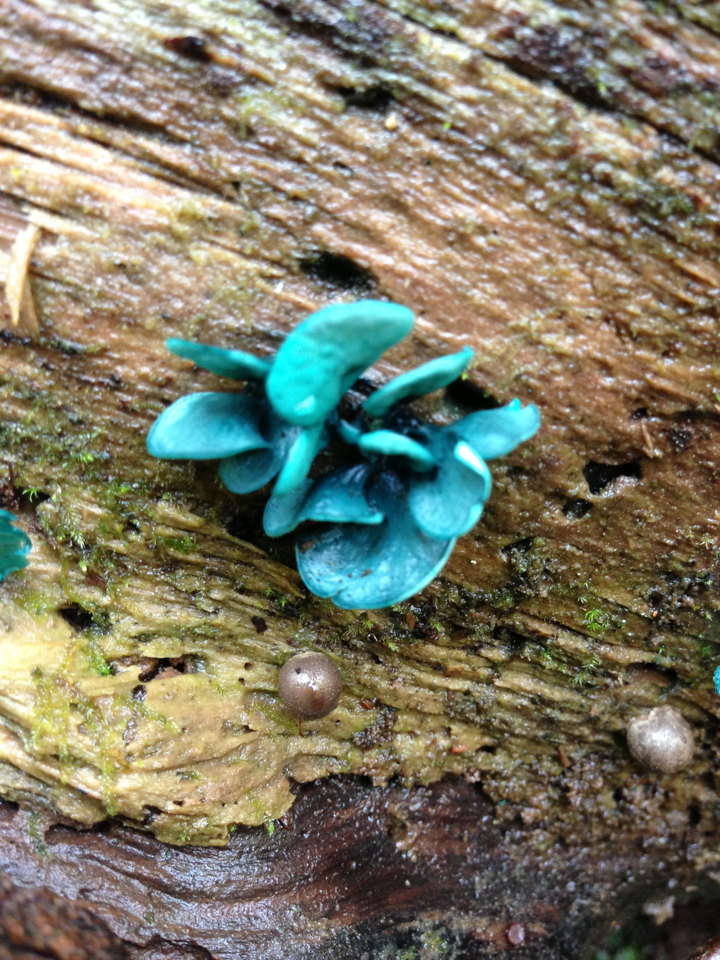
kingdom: Fungi
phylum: Ascomycota
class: Leotiomycetes
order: Helotiales
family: Chlorociboriaceae
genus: Chlorociboria
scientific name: Chlorociboria aeruginascens
